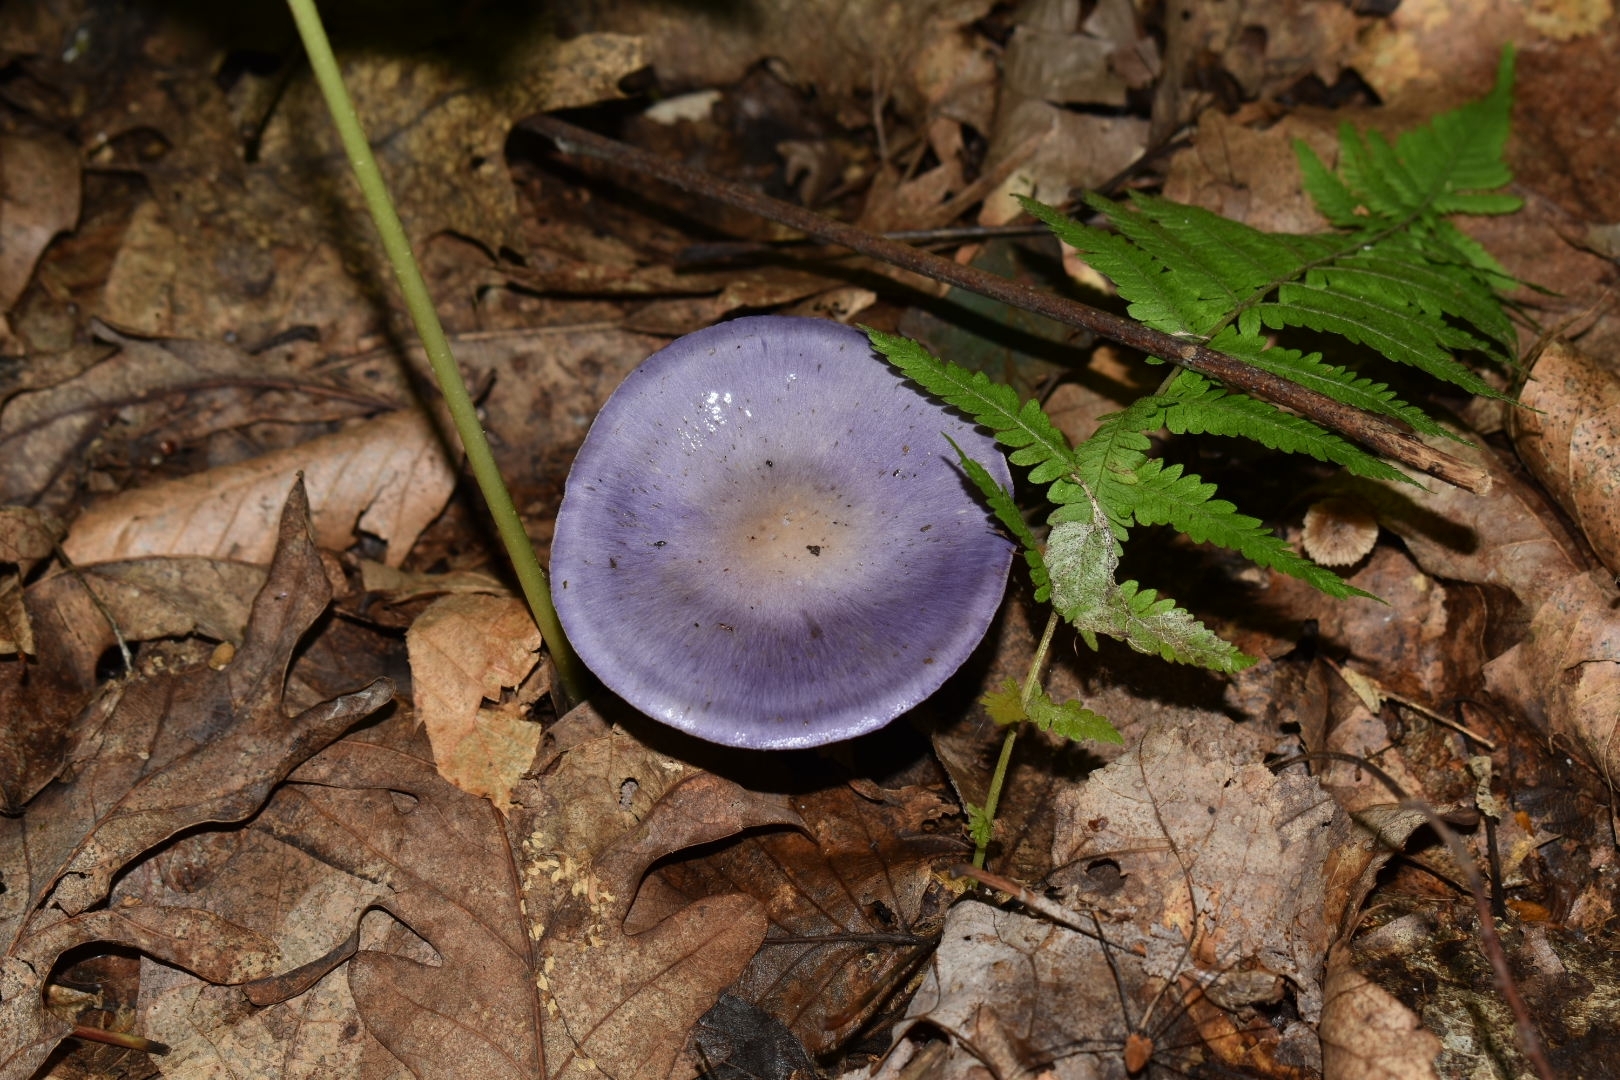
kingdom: Fungi
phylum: Basidiomycota
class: Agaricomycetes
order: Agaricales
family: Cortinariaceae
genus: Cortinarius
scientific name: Cortinarius iodes
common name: Viscid violet cort
